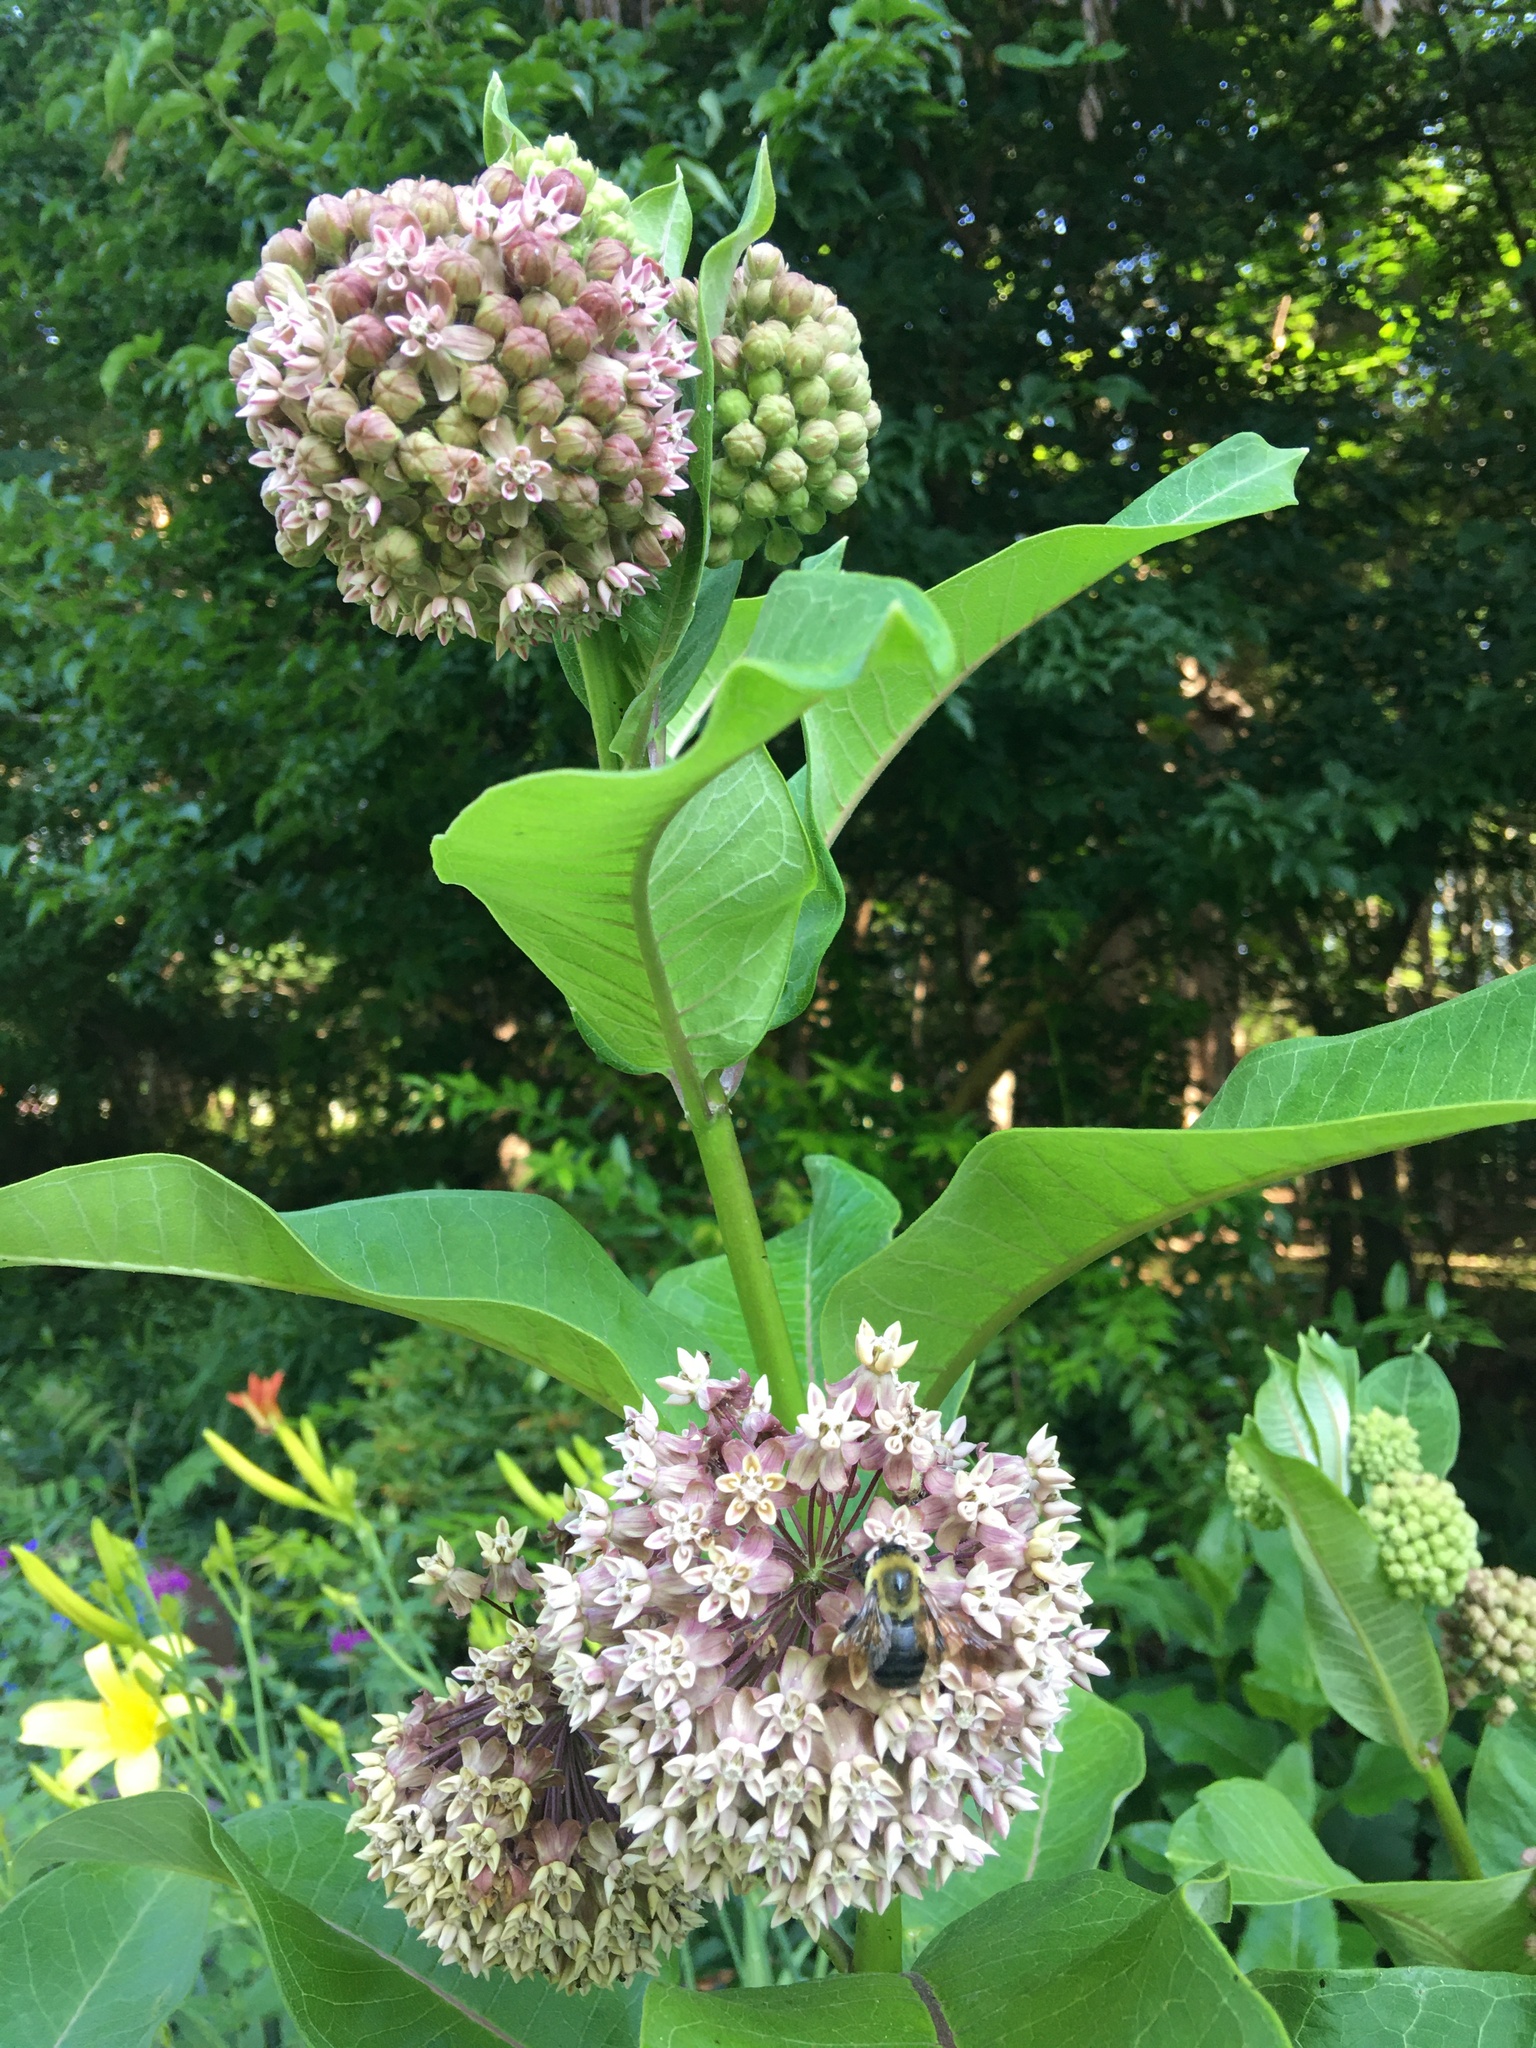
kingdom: Plantae
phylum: Tracheophyta
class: Magnoliopsida
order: Gentianales
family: Apocynaceae
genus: Asclepias
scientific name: Asclepias syriaca
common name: Common milkweed
